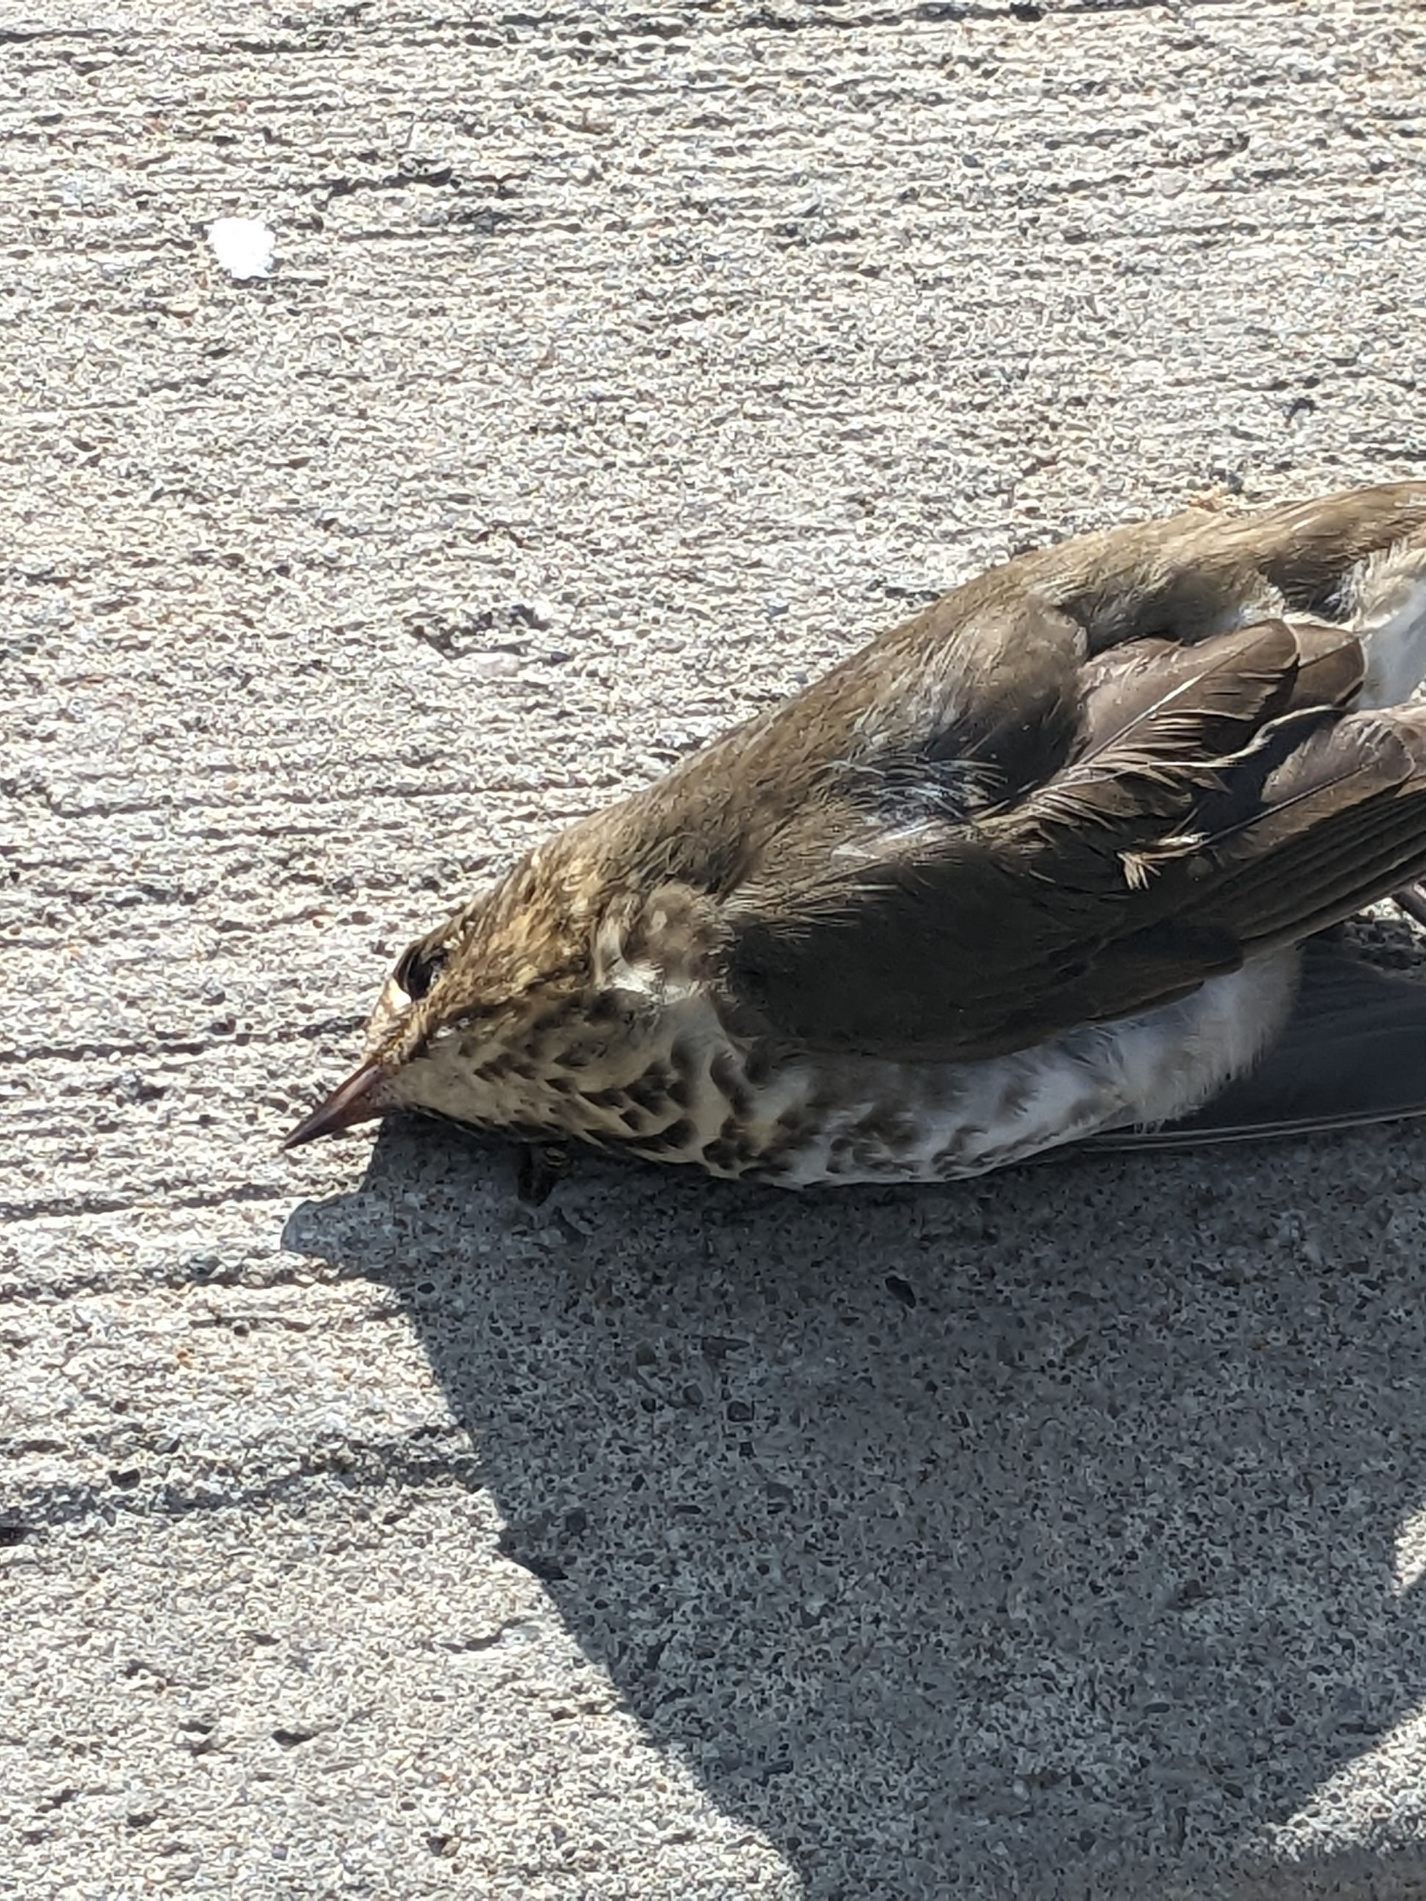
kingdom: Animalia
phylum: Chordata
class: Aves
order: Passeriformes
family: Turdidae
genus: Catharus
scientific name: Catharus ustulatus
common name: Swainson's thrush
